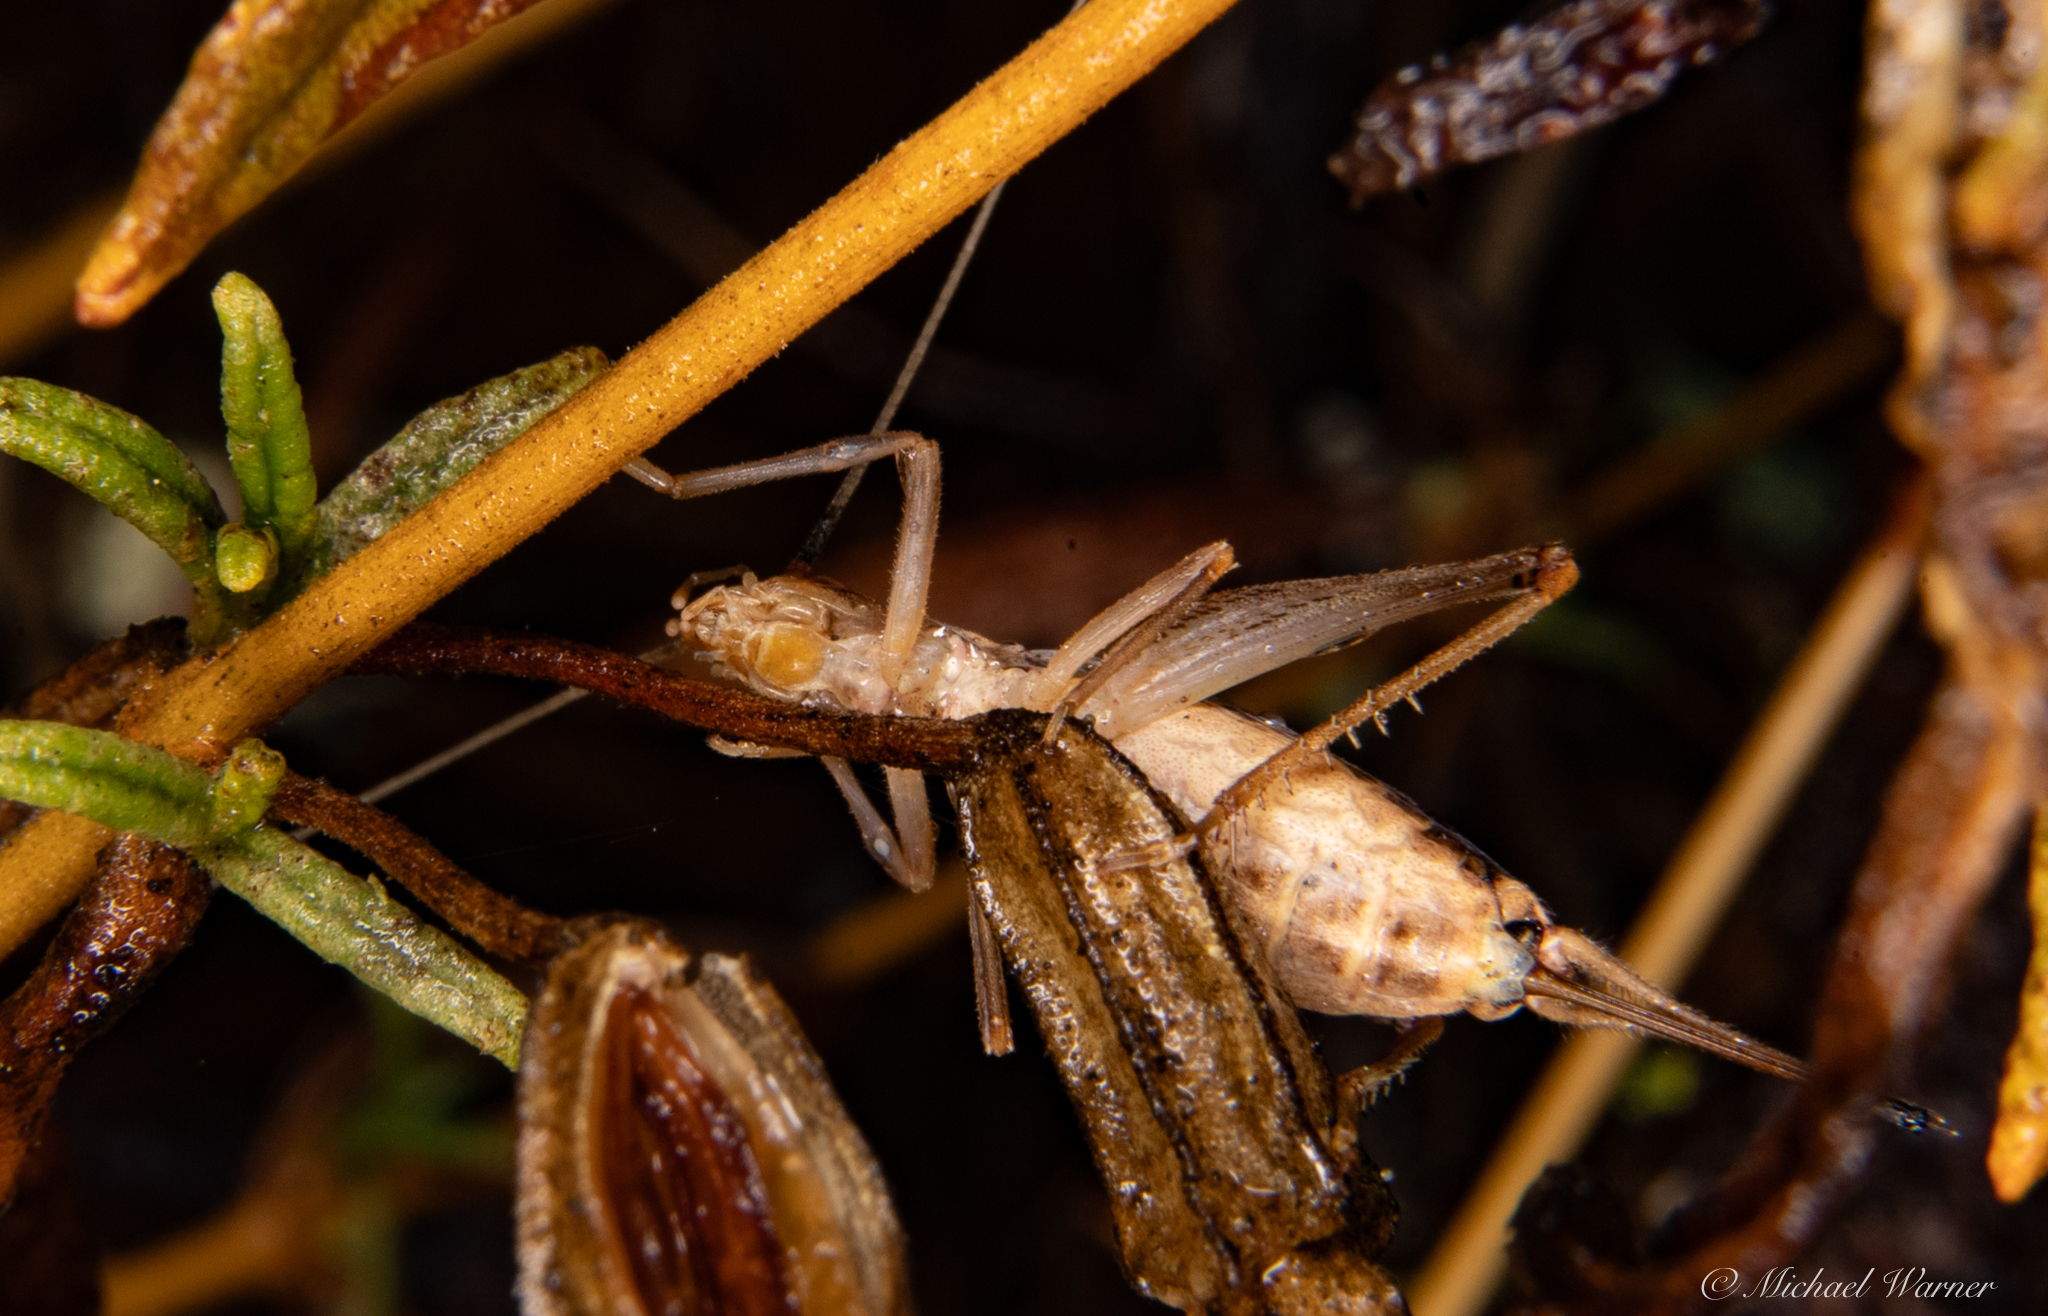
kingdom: Animalia
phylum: Arthropoda
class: Insecta
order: Orthoptera
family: Gryllidae
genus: Oecanthus
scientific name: Oecanthus californicus
